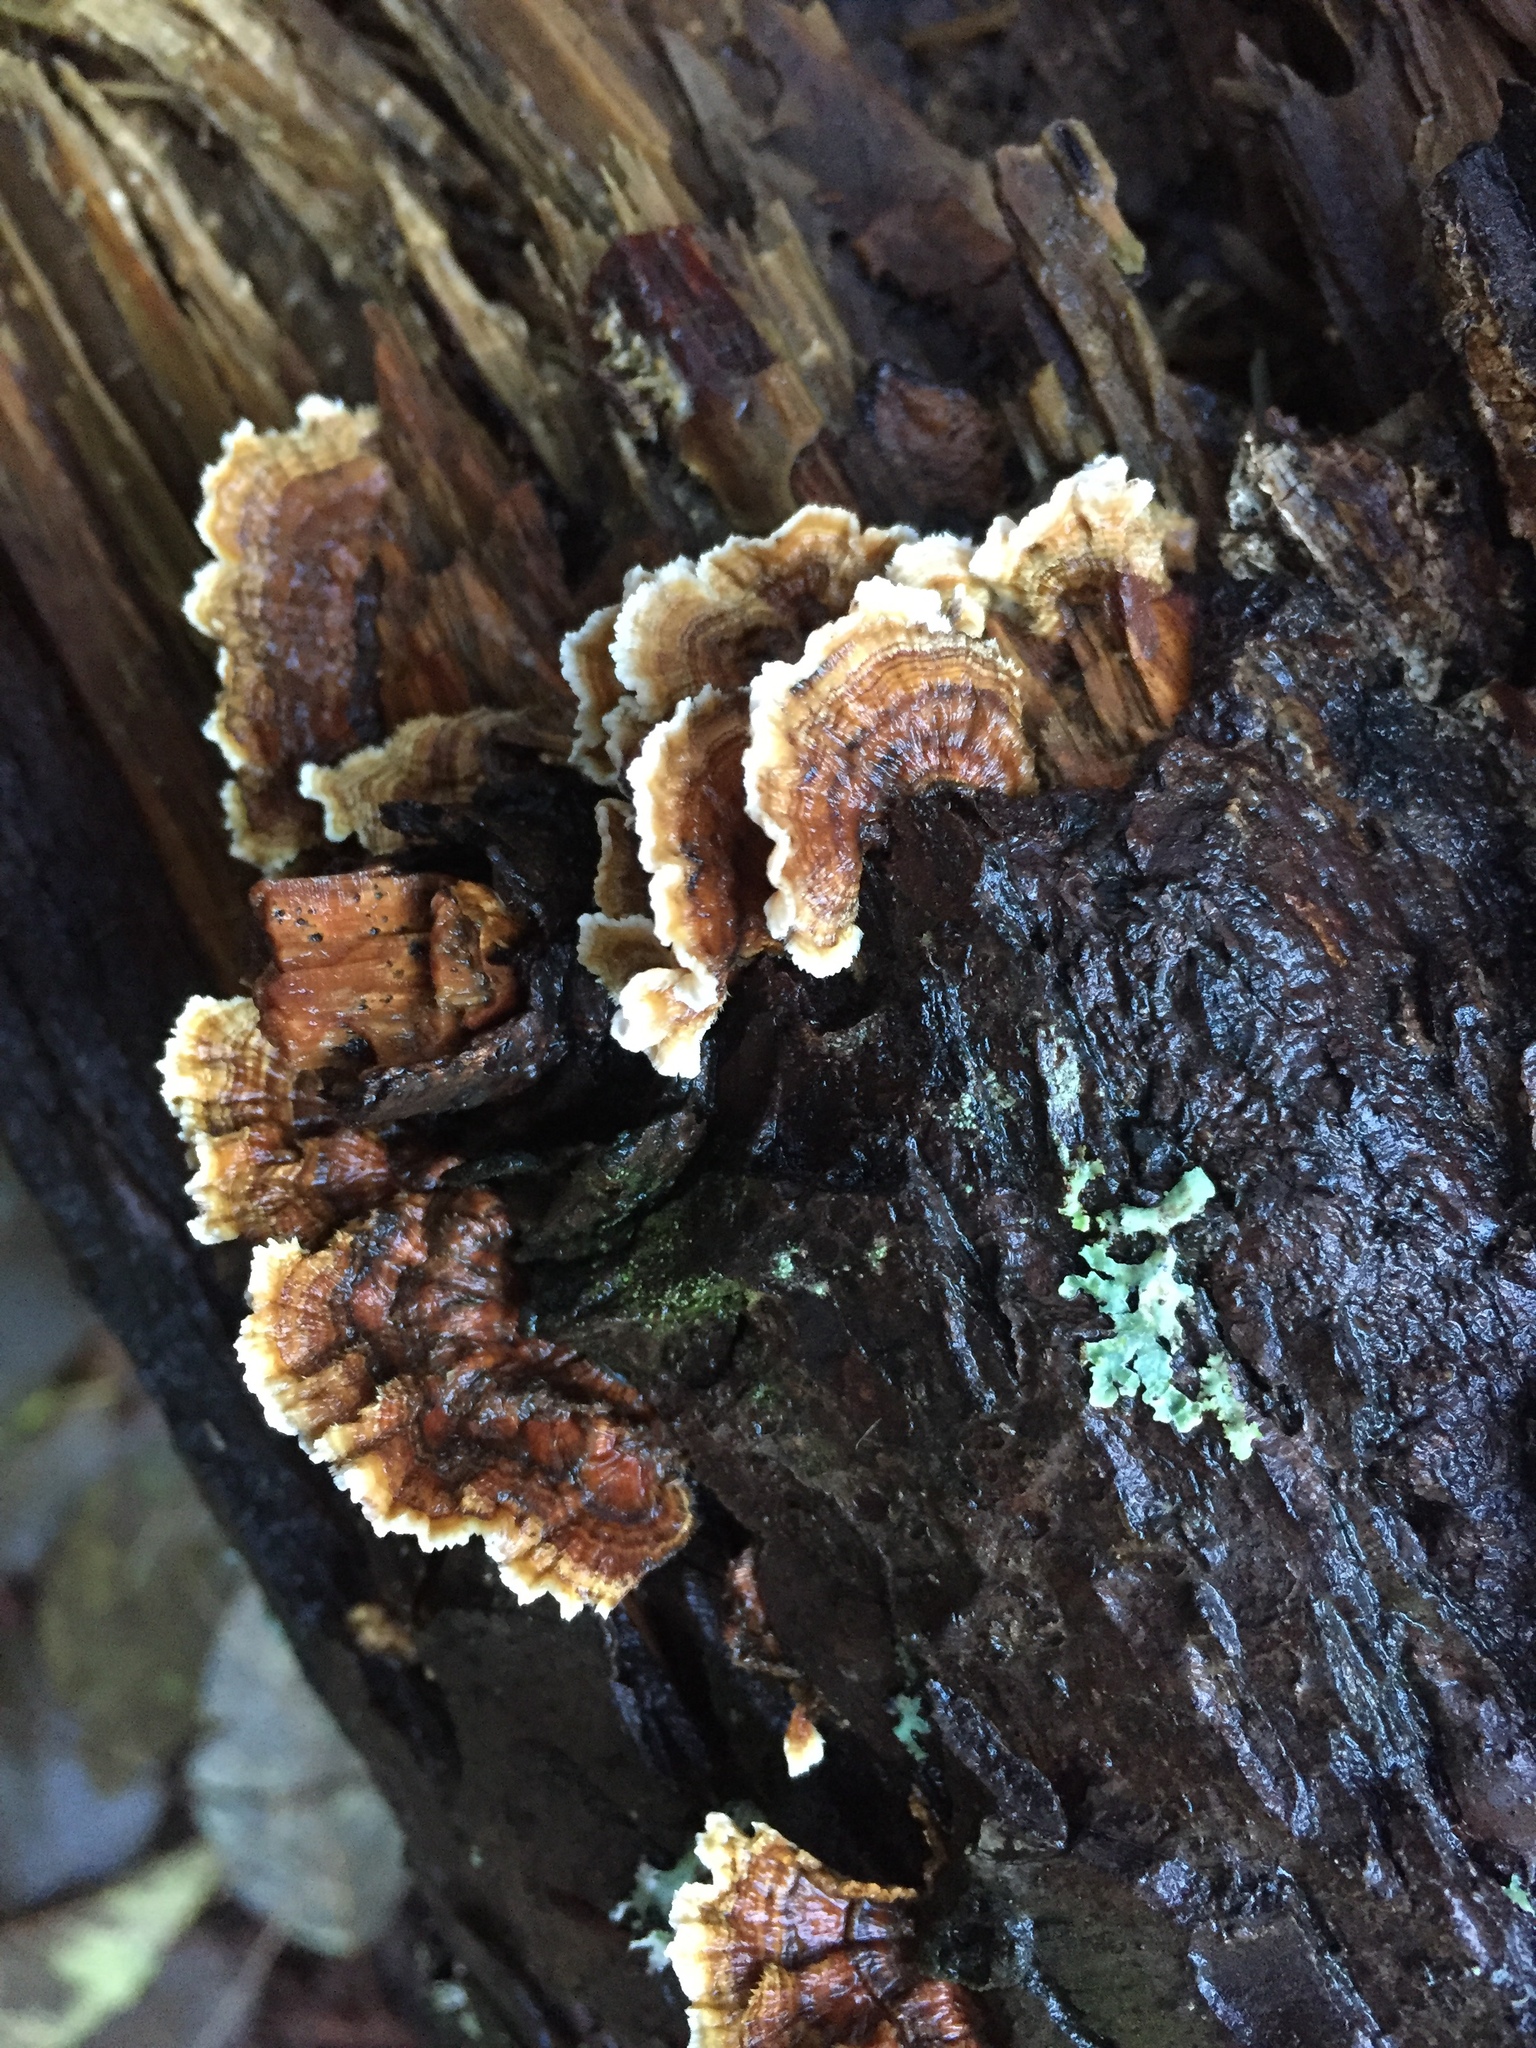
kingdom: Fungi
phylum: Basidiomycota
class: Agaricomycetes
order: Russulales
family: Stereaceae
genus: Stereum
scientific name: Stereum hirsutum
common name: Hairy curtain crust
